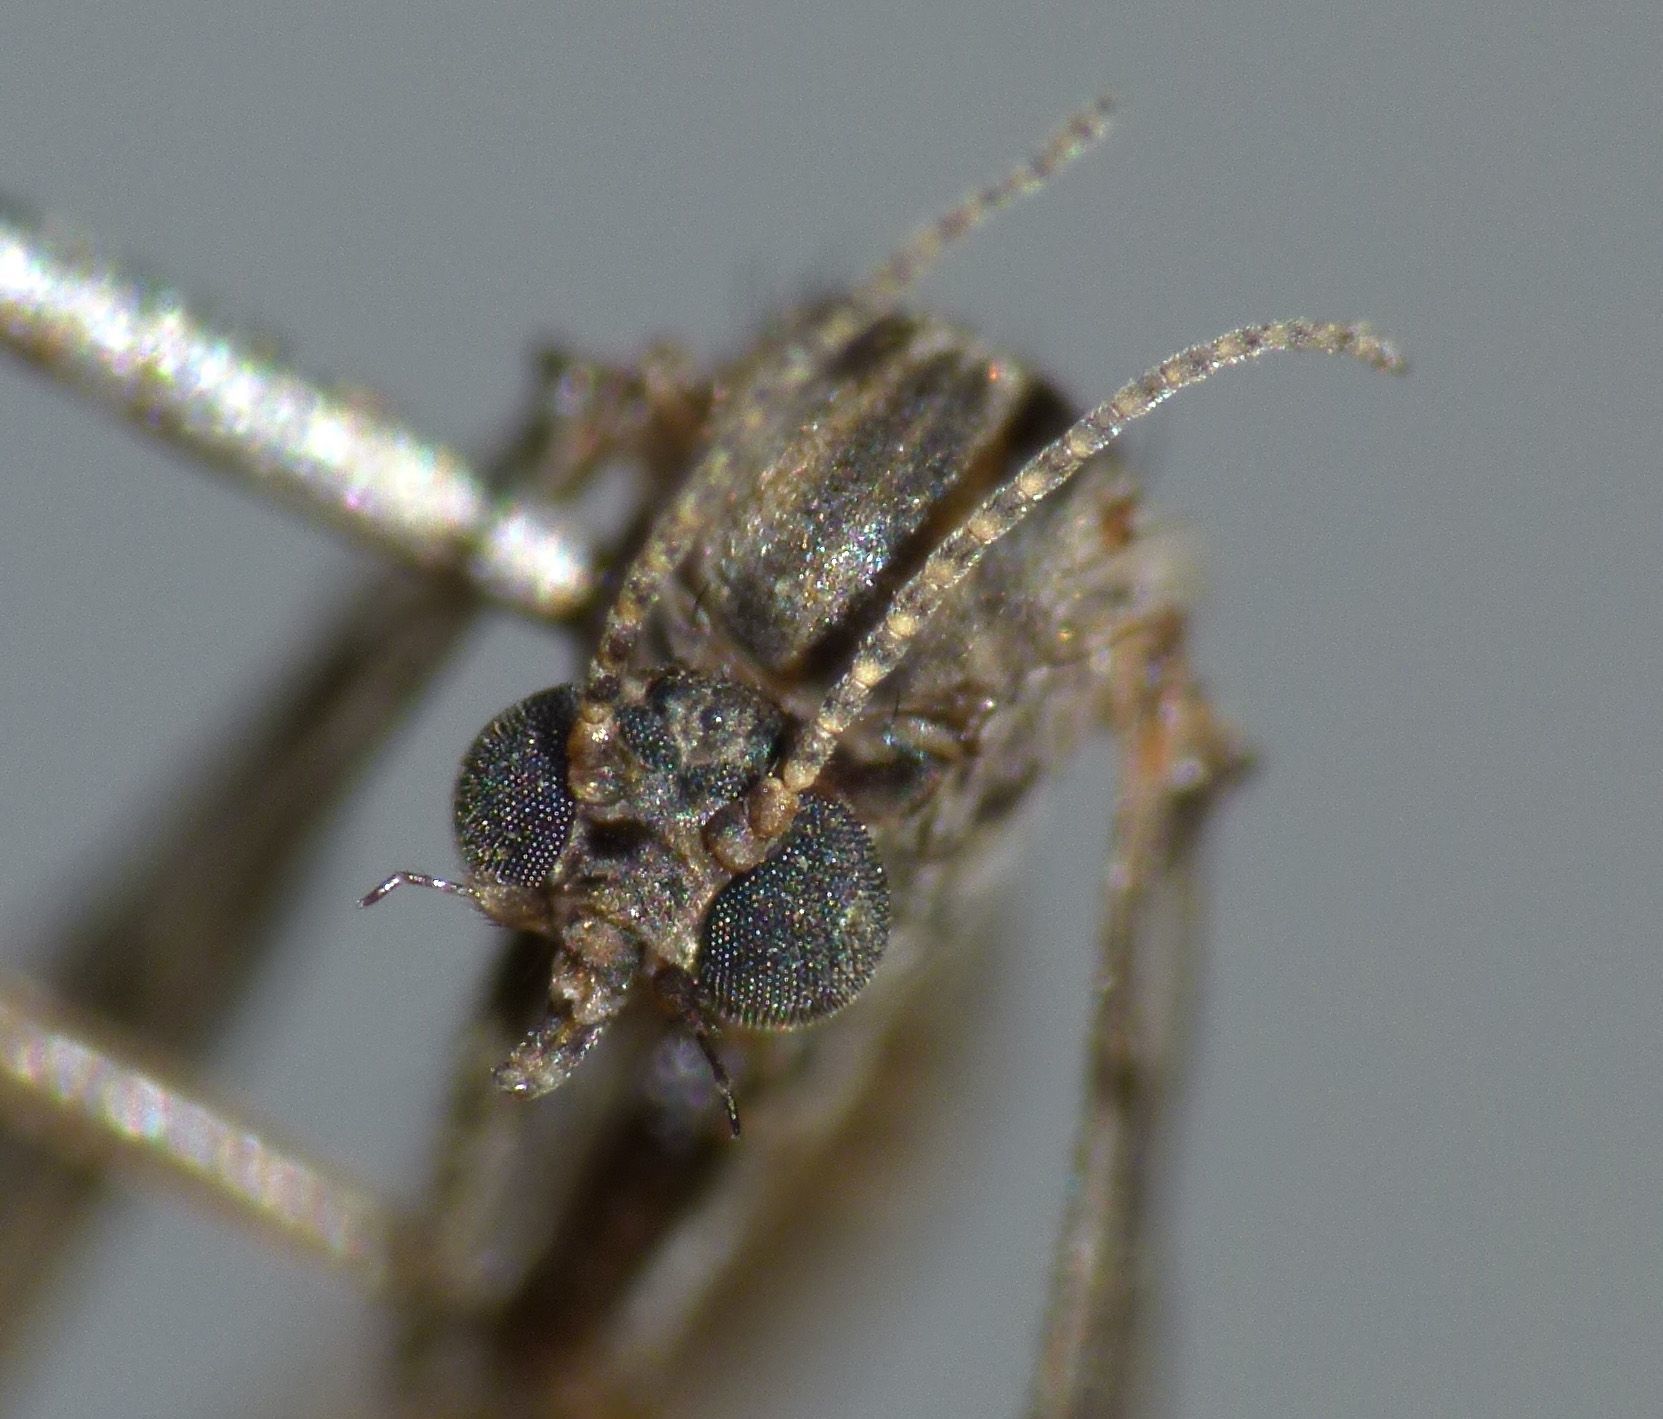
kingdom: Animalia
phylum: Arthropoda
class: Insecta
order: Diptera
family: Ditomyiidae
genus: Nervijuncta
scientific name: Nervijuncta wakefieldi
